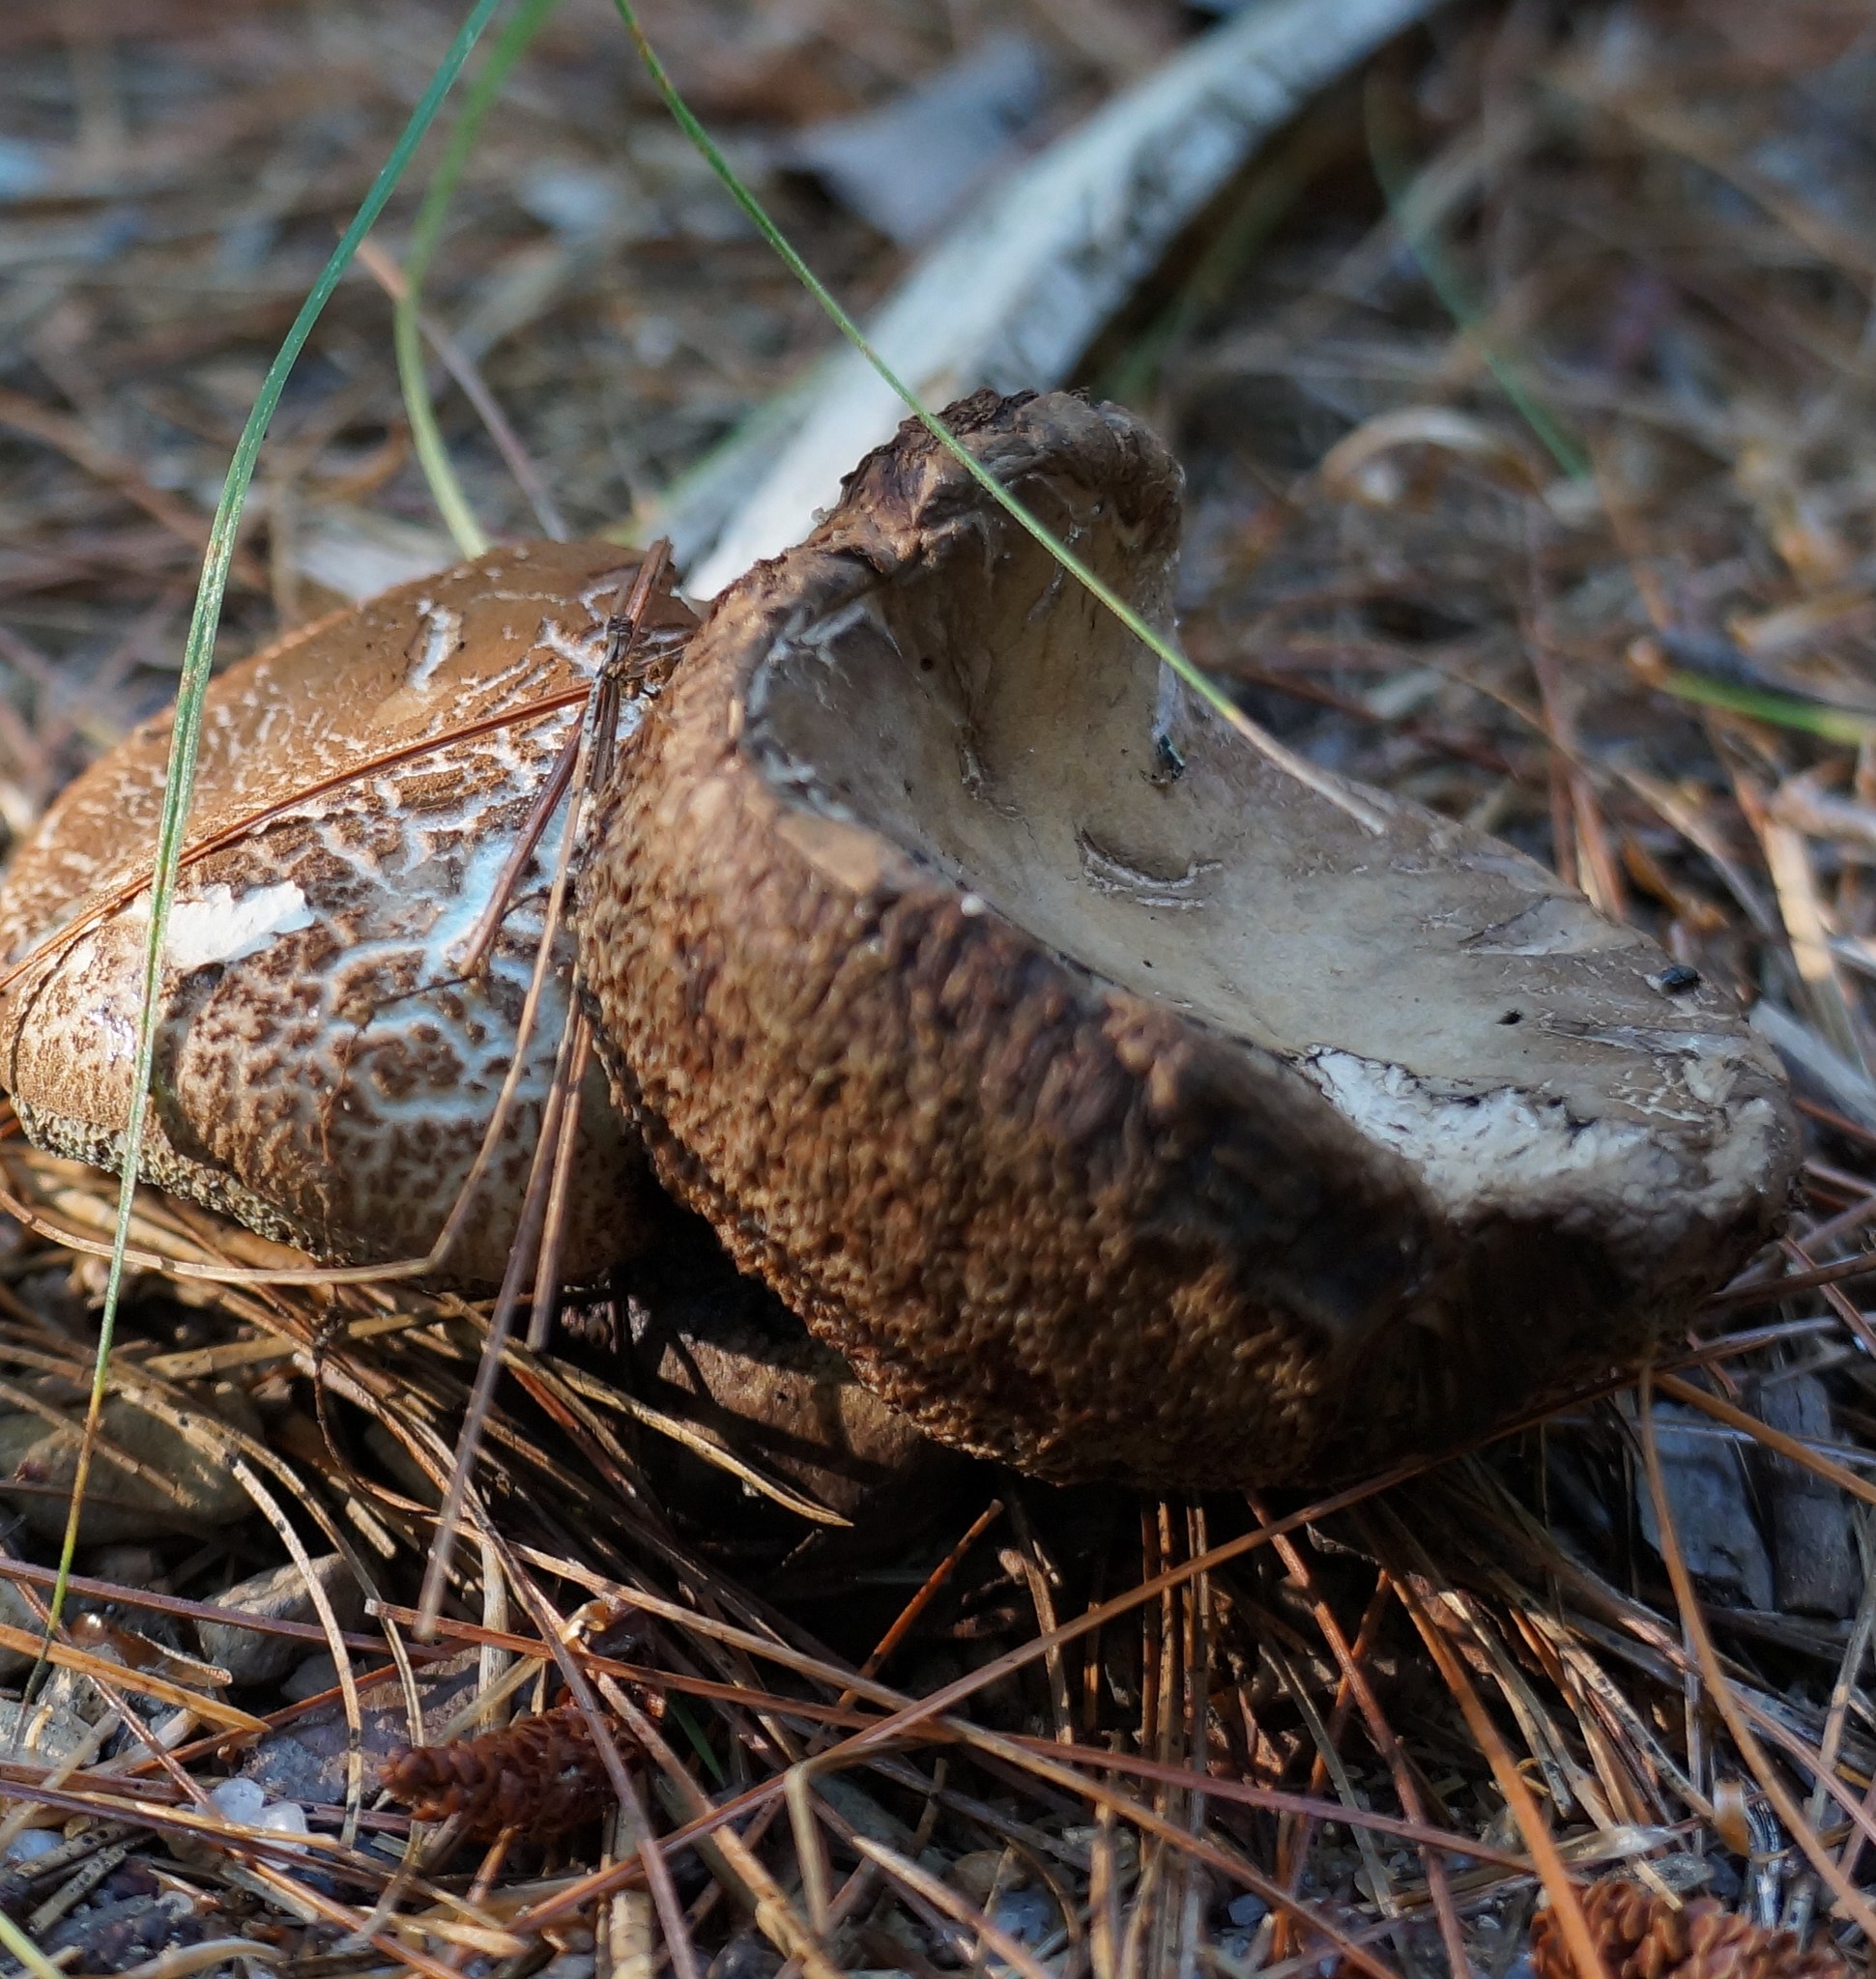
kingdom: Fungi
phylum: Basidiomycota
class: Agaricomycetes
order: Boletales
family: Boletaceae
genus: Porphyrellus
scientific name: Porphyrellus sordidus
